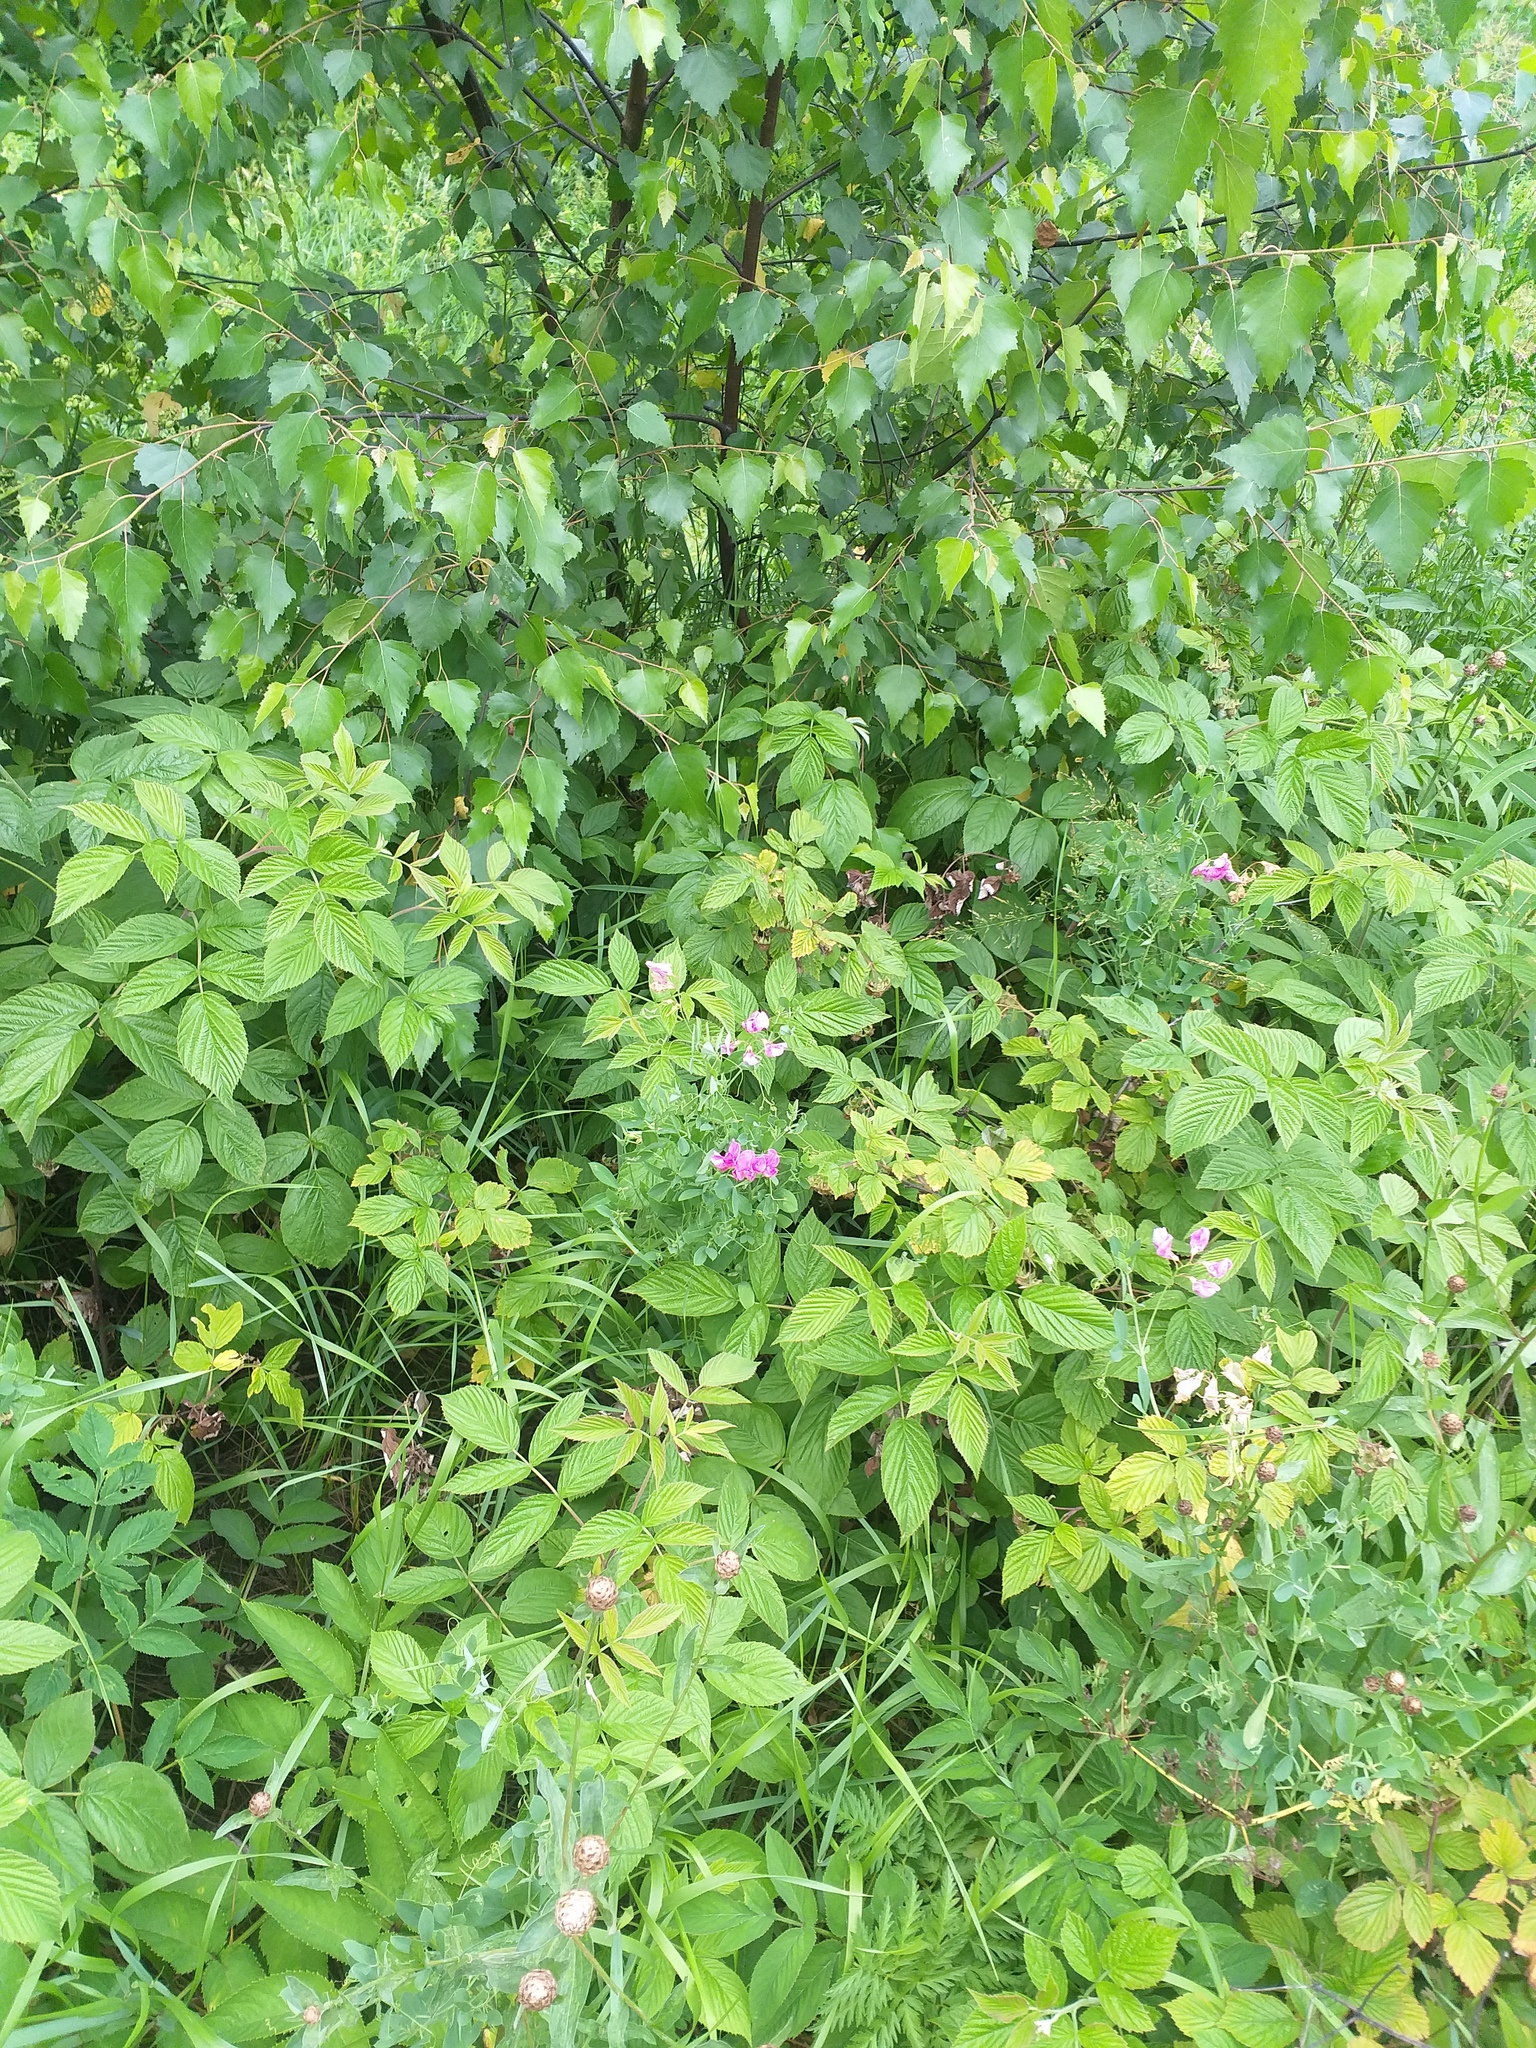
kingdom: Plantae
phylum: Tracheophyta
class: Magnoliopsida
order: Fabales
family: Fabaceae
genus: Lathyrus
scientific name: Lathyrus tuberosus
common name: Tuberous pea
